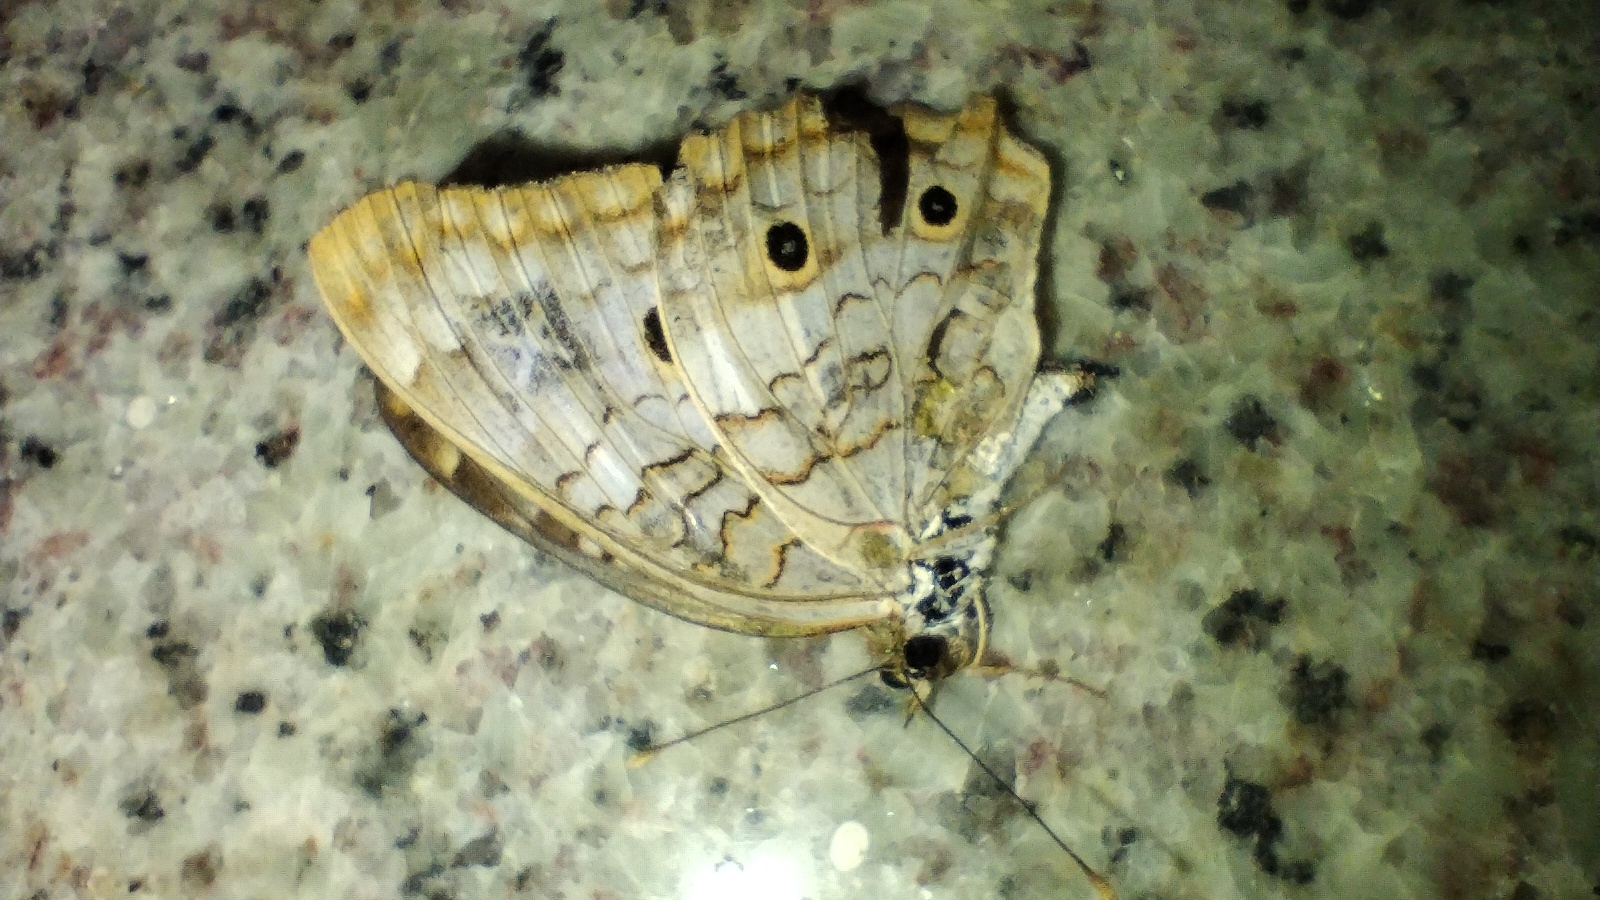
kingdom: Animalia
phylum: Arthropoda
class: Insecta
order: Lepidoptera
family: Nymphalidae
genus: Anartia
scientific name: Anartia jatrophae
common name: White peacock
